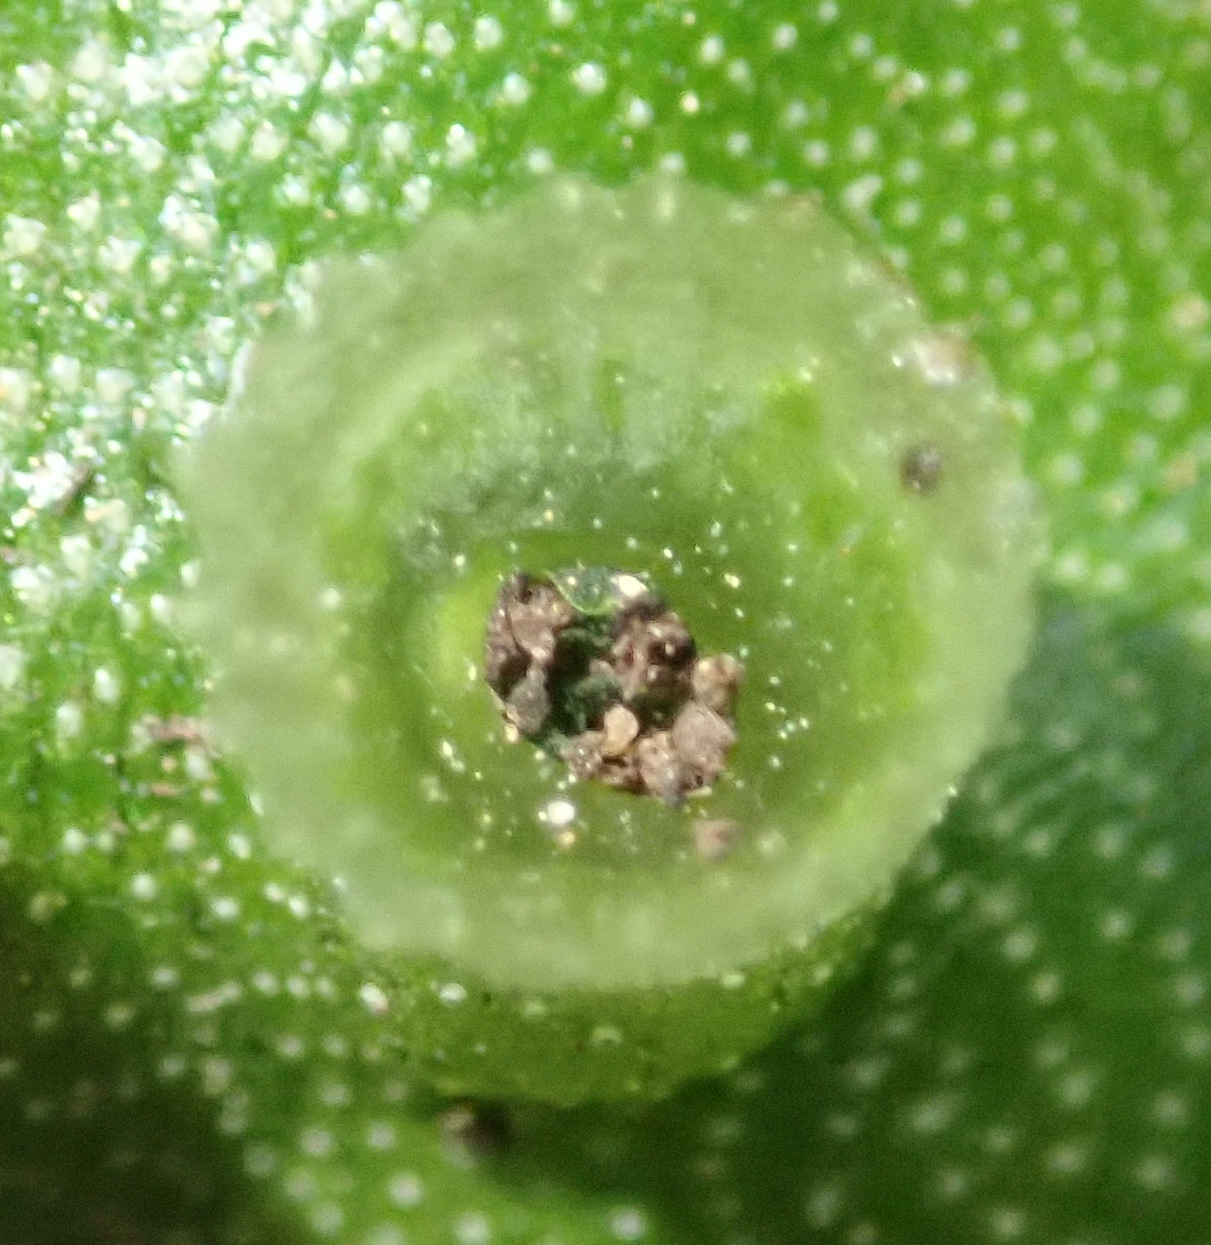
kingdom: Plantae
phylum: Marchantiophyta
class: Marchantiopsida
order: Marchantiales
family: Marchantiaceae
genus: Marchantia
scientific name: Marchantia berteroana
